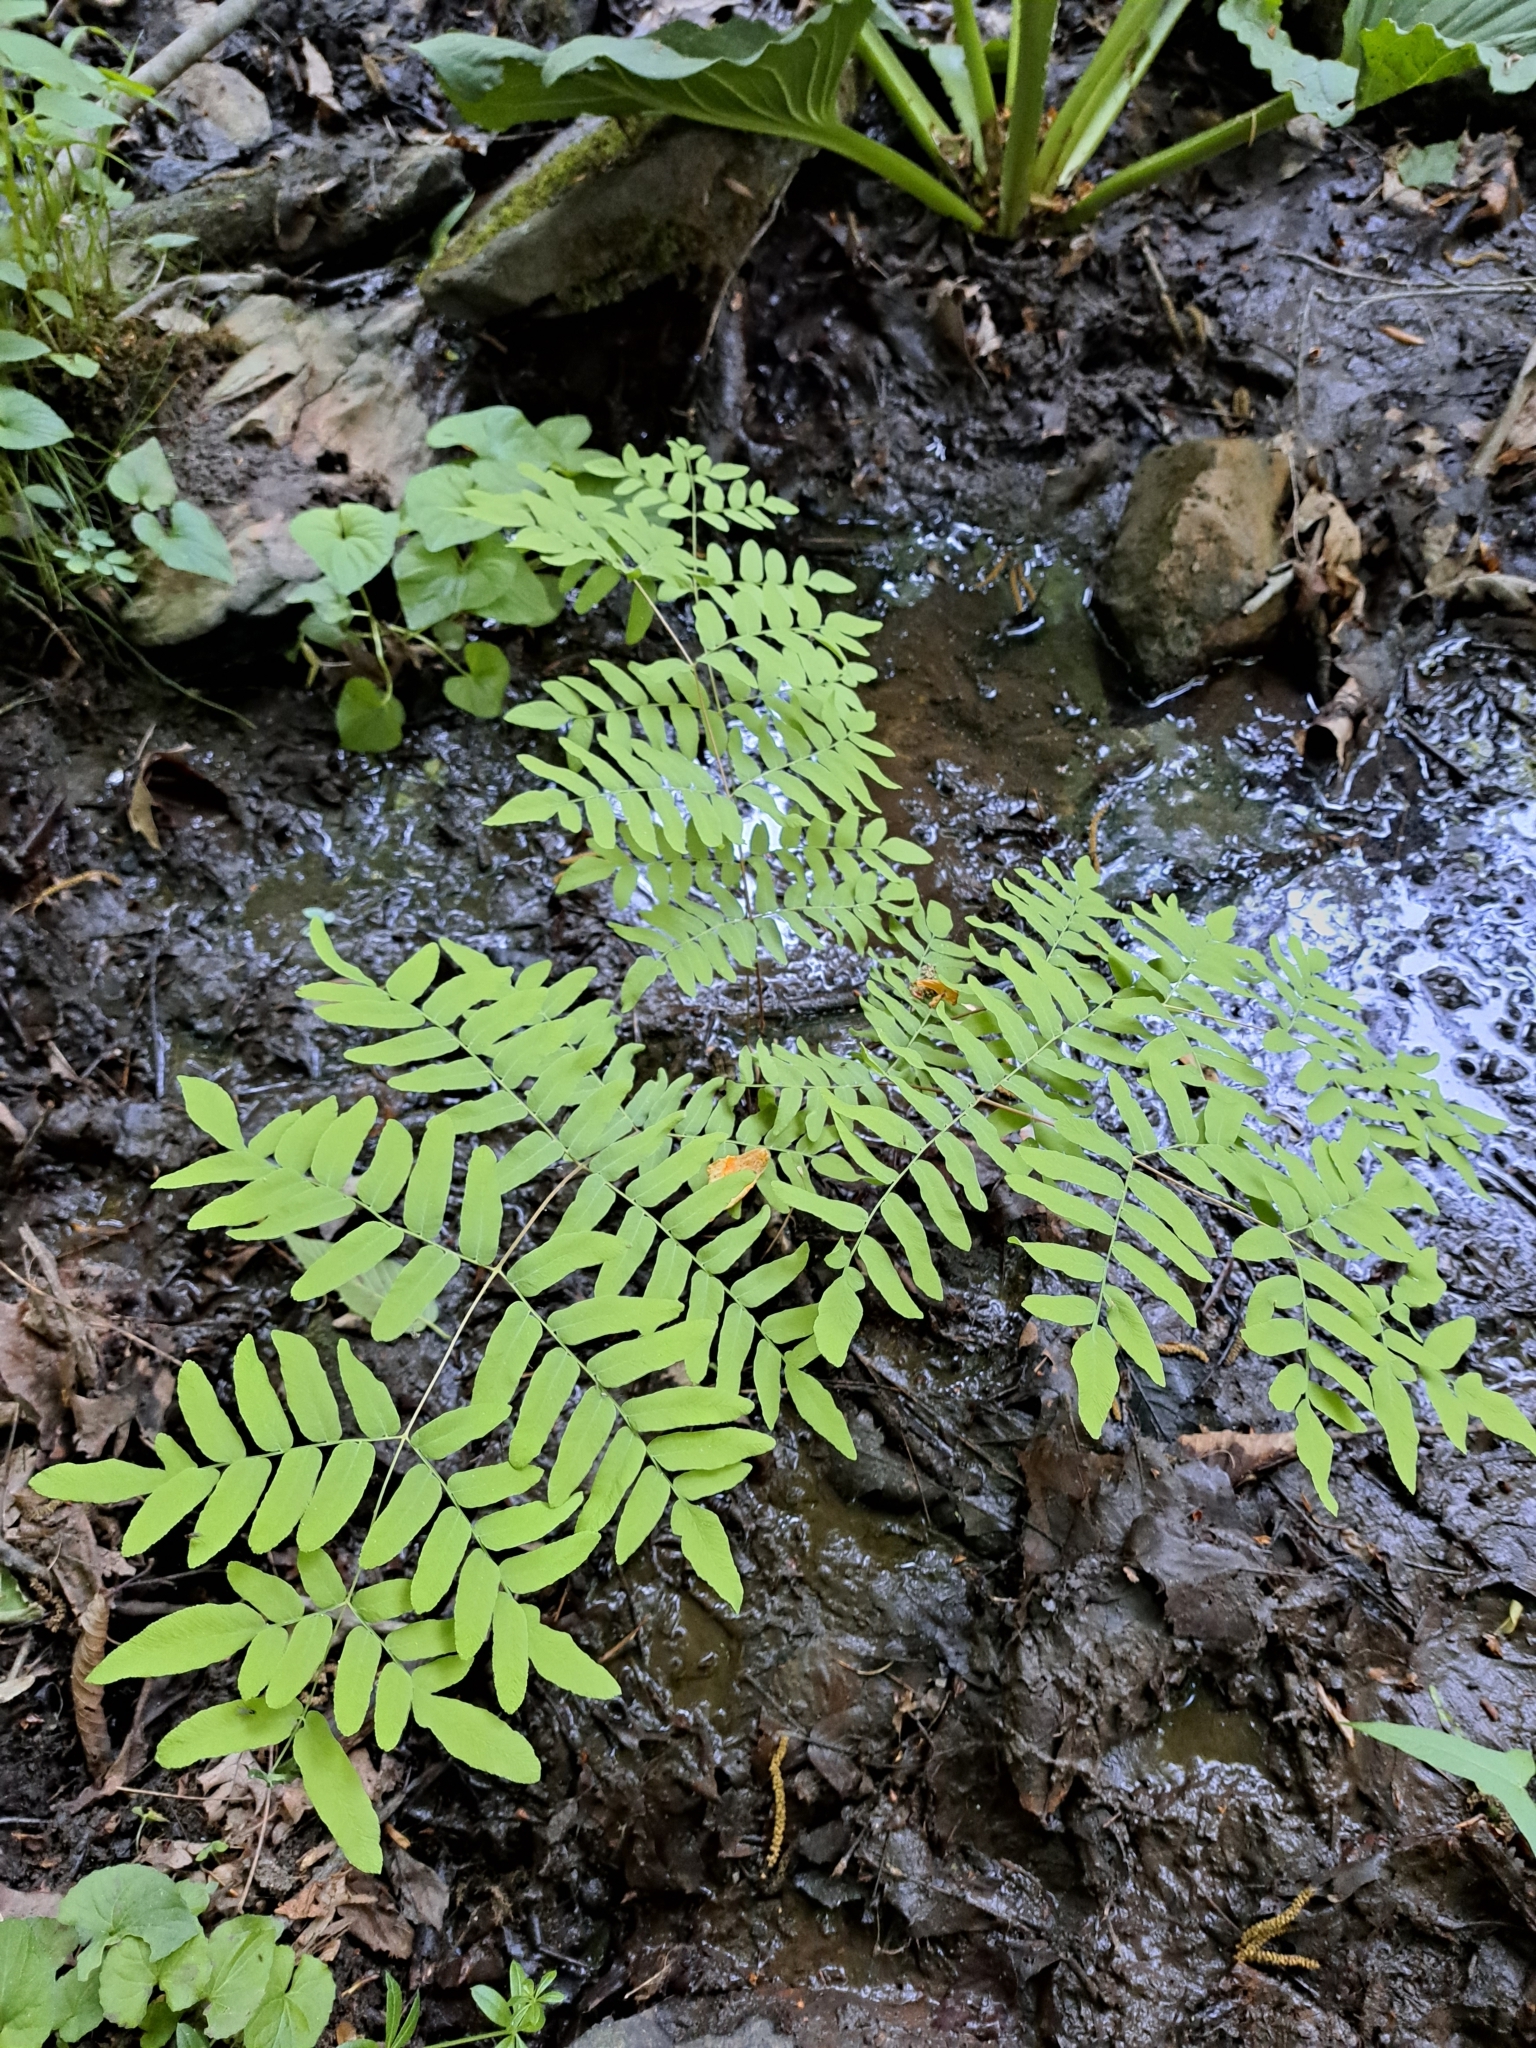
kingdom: Plantae
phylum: Tracheophyta
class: Polypodiopsida
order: Osmundales
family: Osmundaceae
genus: Osmunda
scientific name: Osmunda spectabilis
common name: American royal fern
